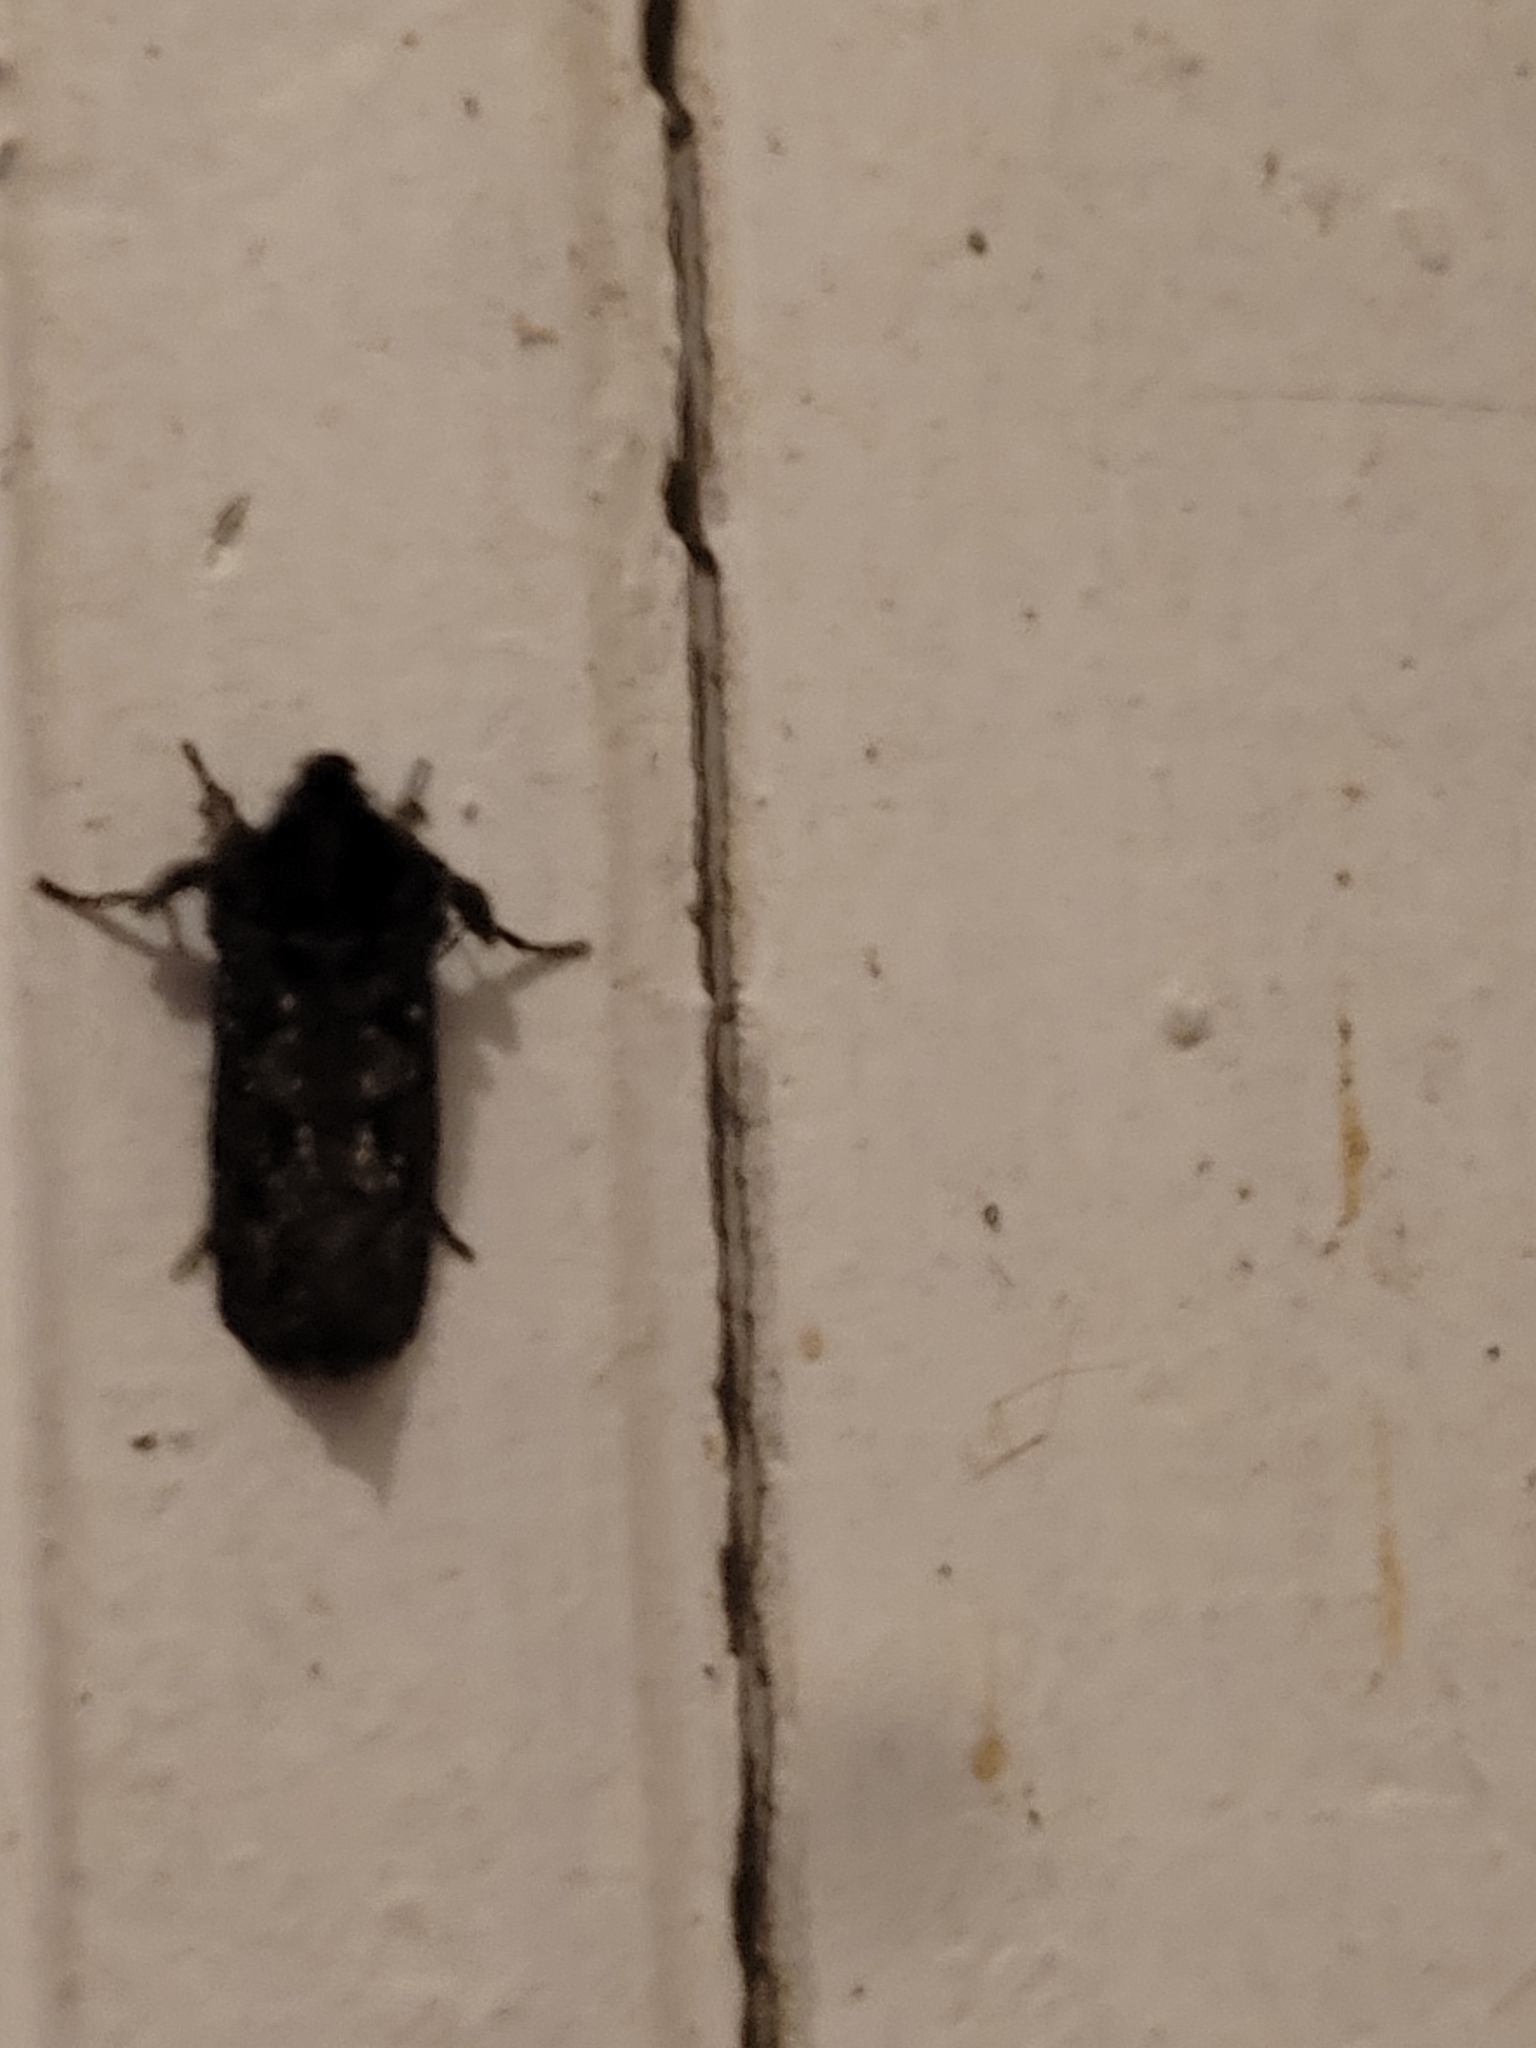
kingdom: Animalia
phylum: Arthropoda
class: Insecta
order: Lepidoptera
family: Tineidae
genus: Acrolophus
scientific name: Acrolophus arcanella
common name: Arcane grass tubeworm moth
